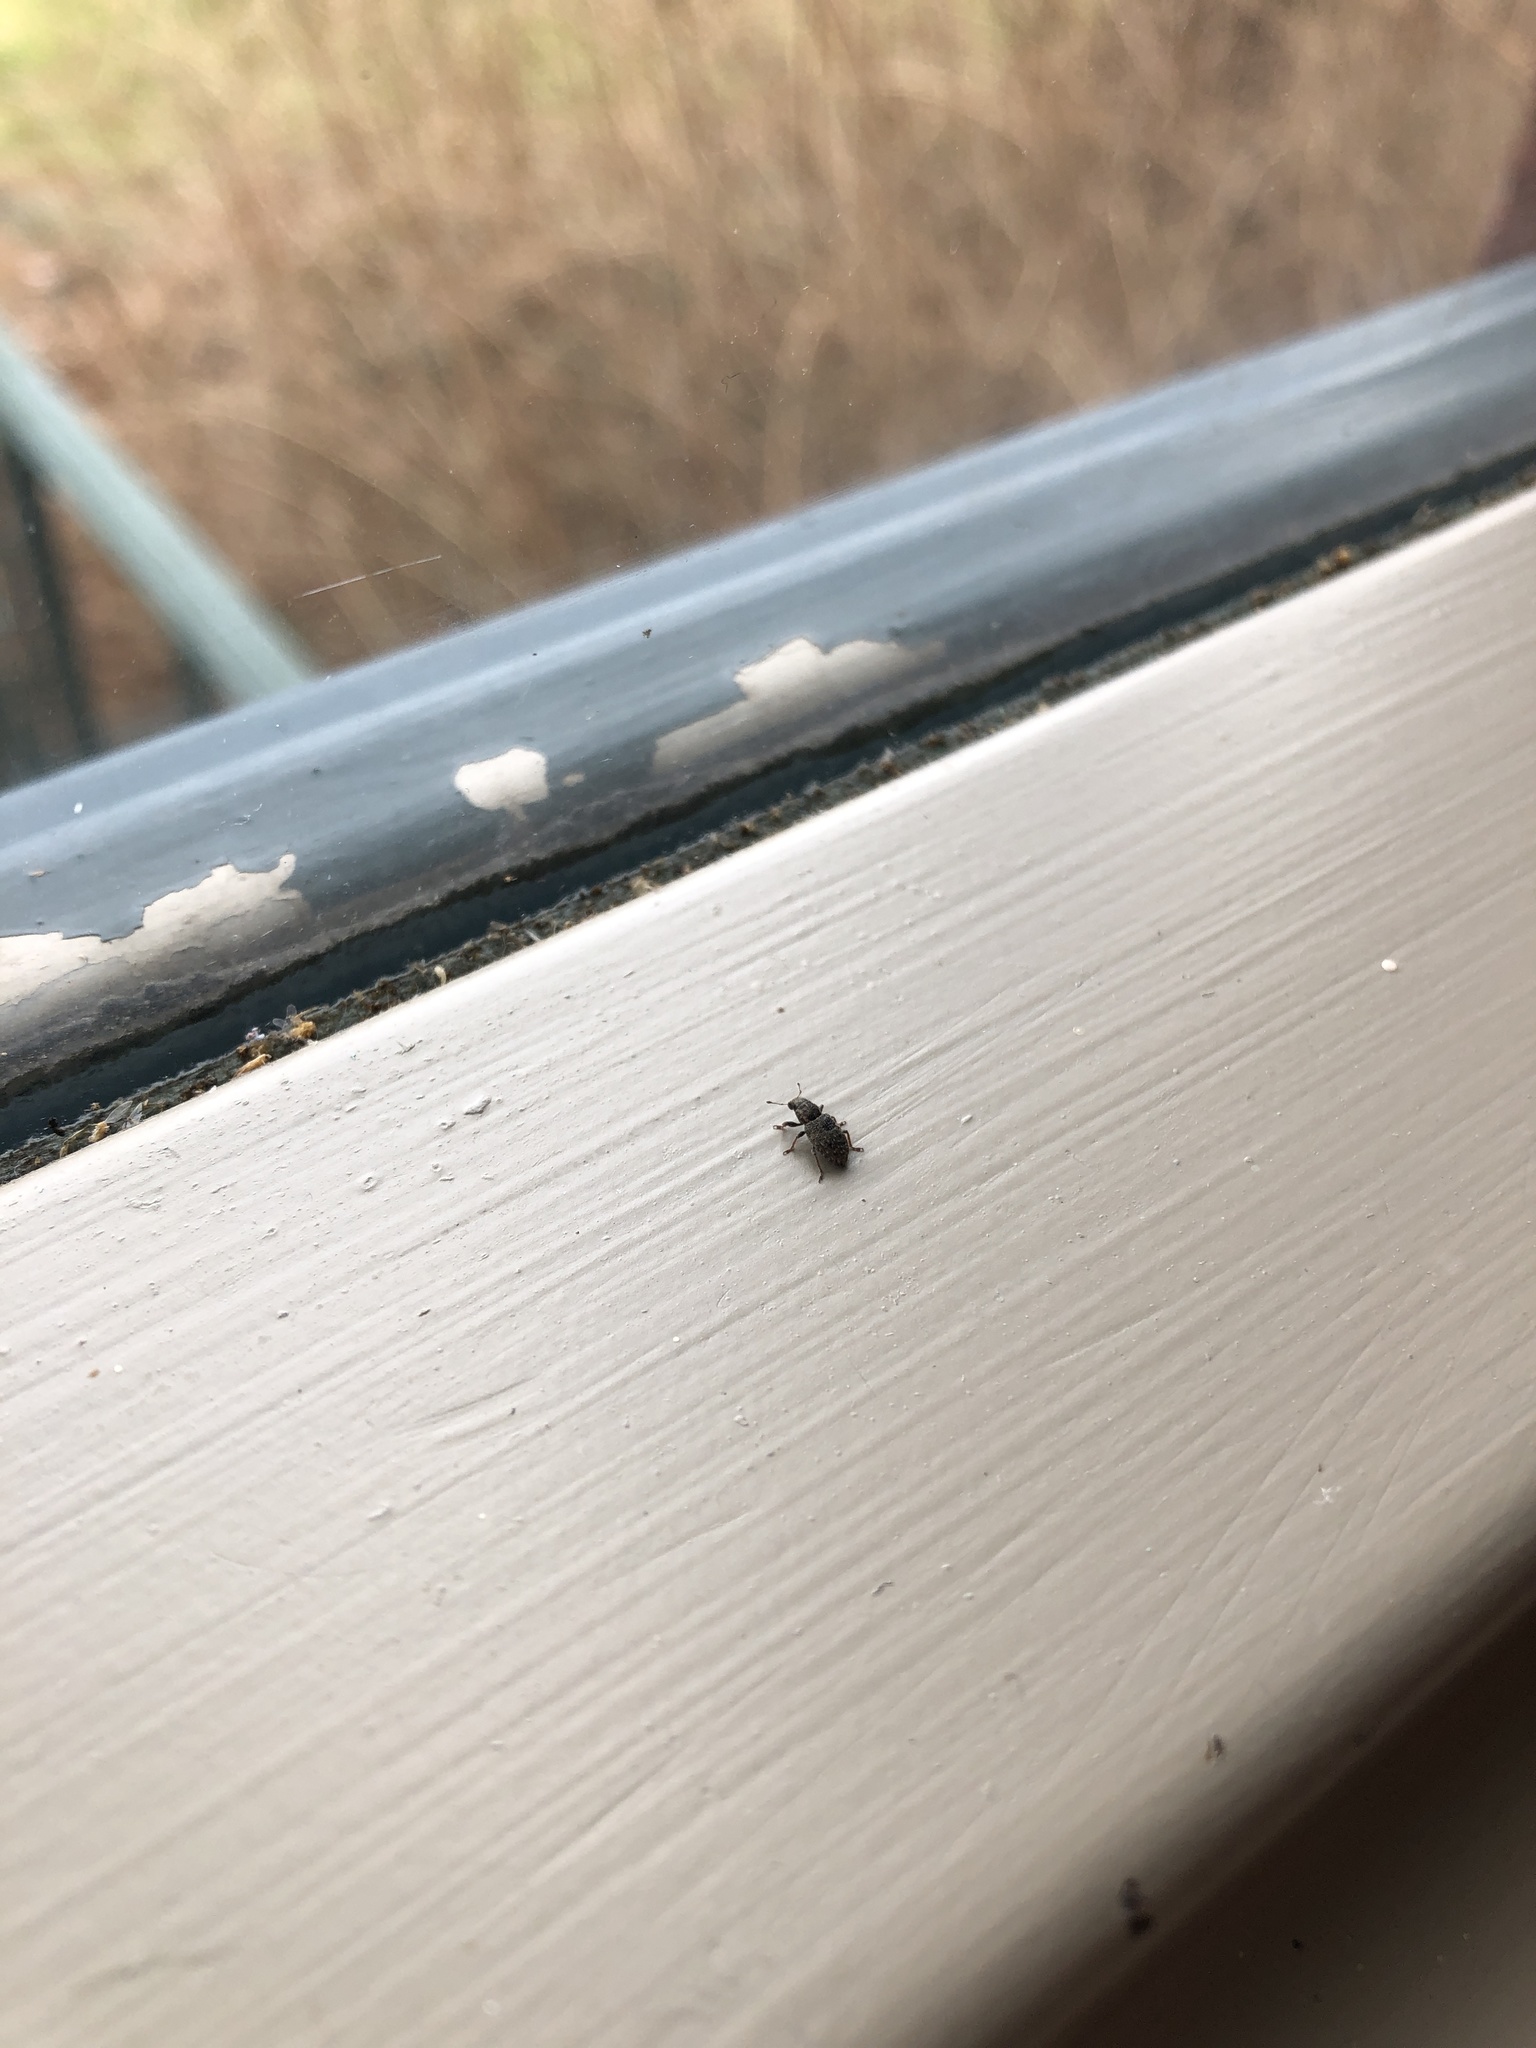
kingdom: Animalia
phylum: Arthropoda
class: Insecta
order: Coleoptera
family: Curculionidae
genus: Sitona
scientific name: Sitona hispidulus
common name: Clover weevil
